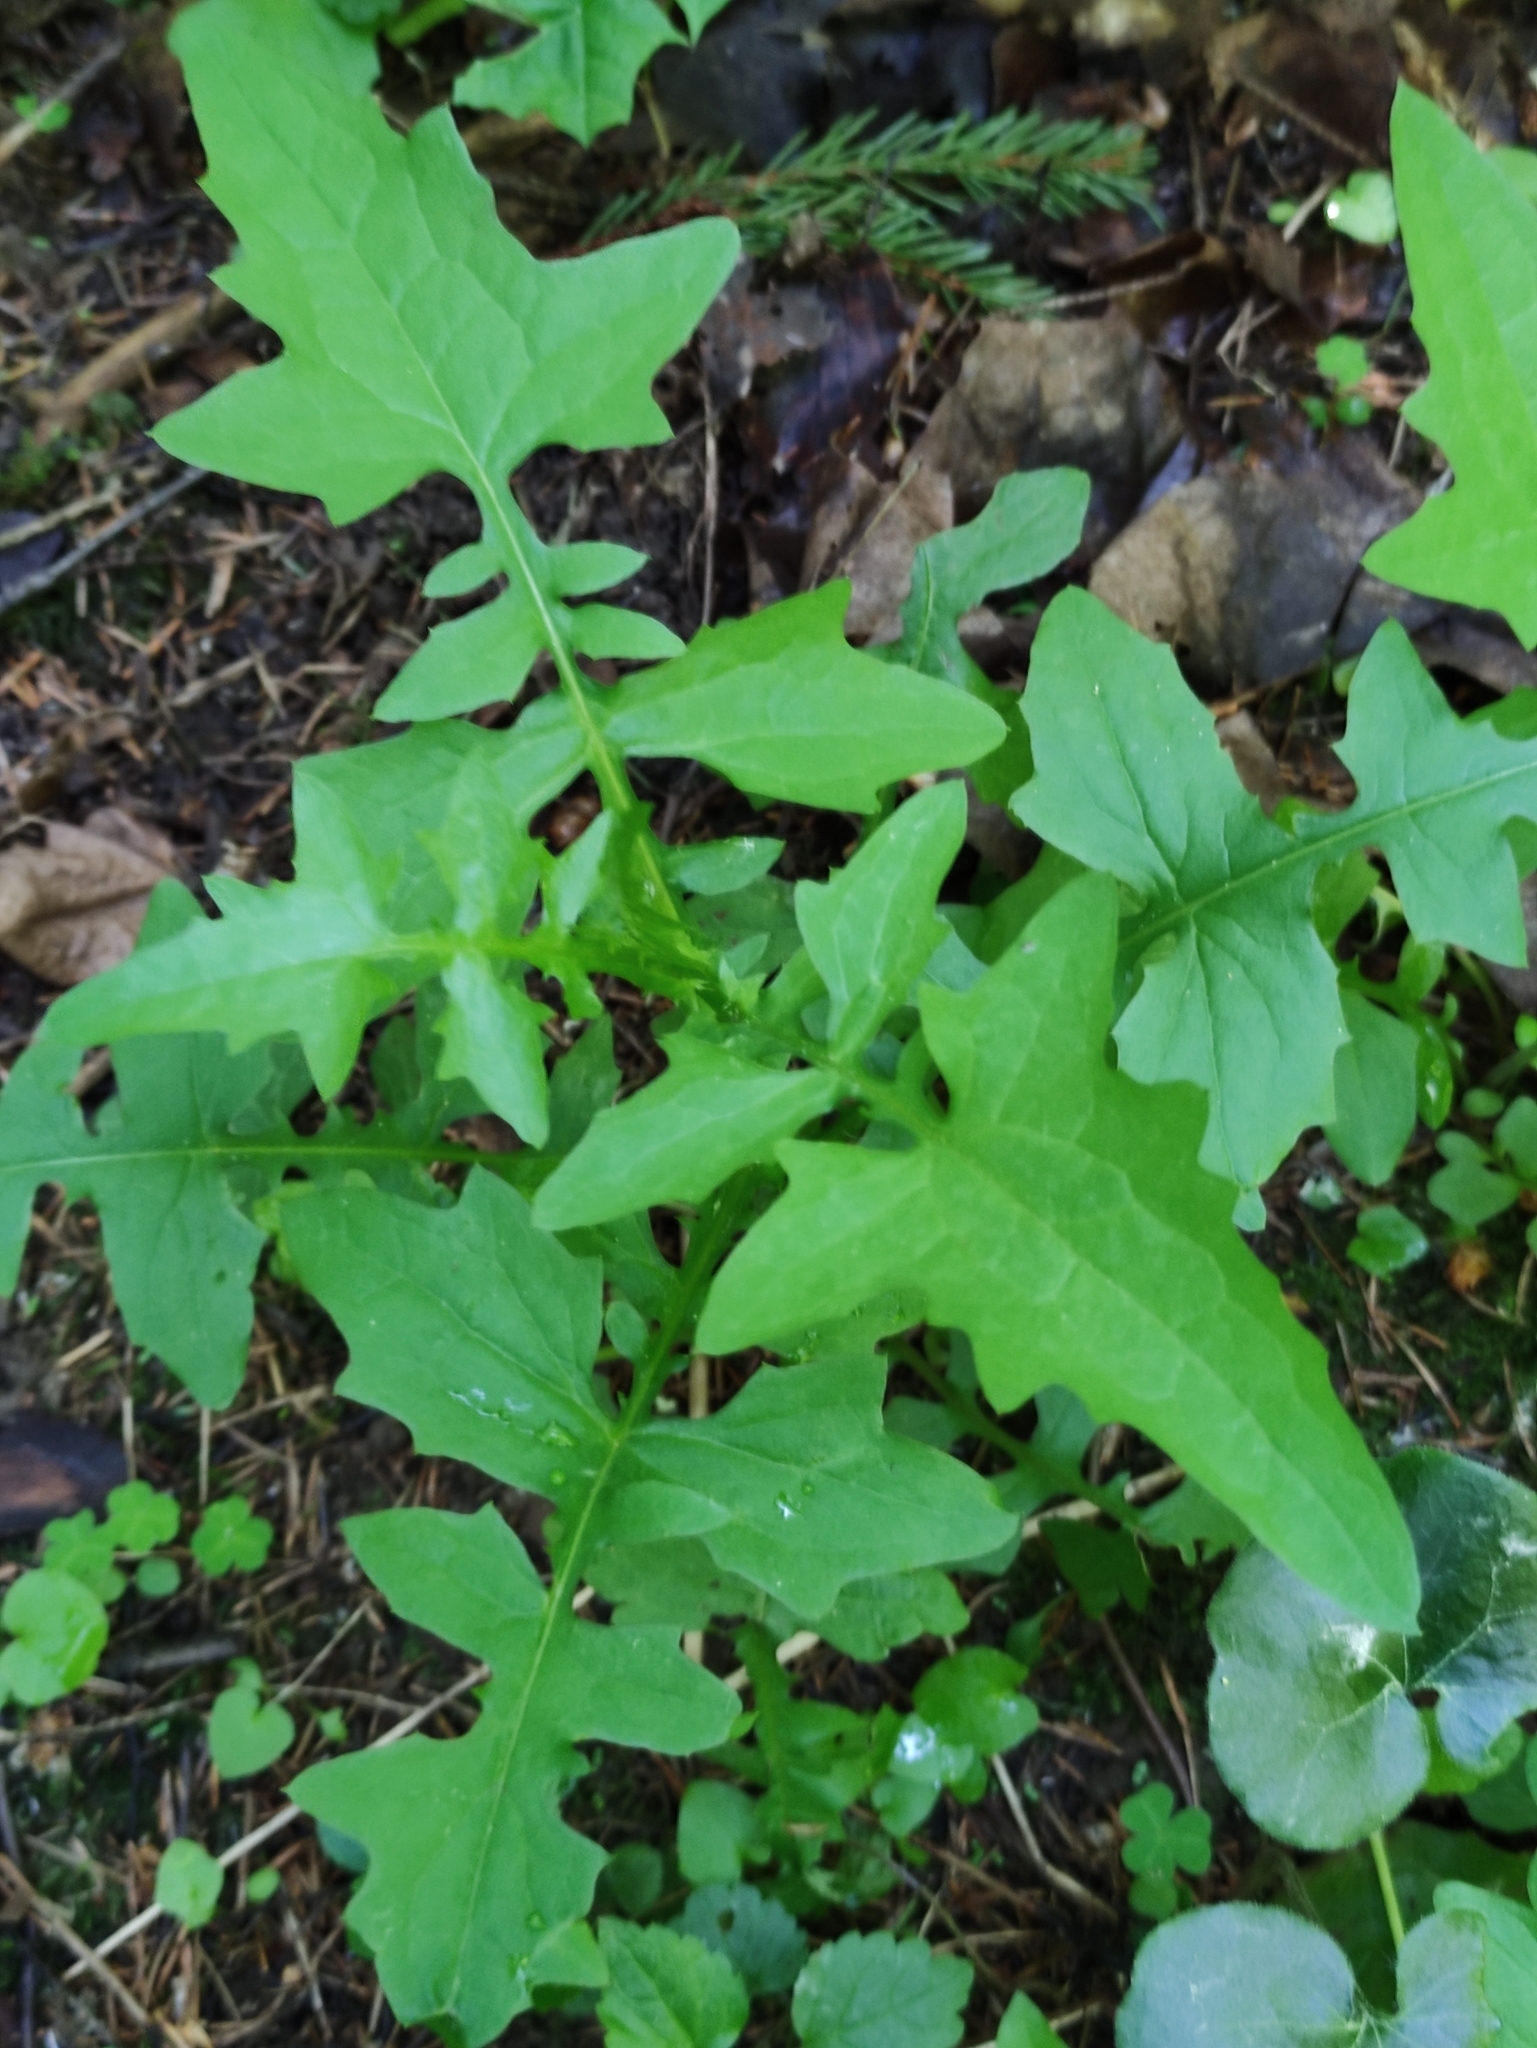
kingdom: Plantae
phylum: Tracheophyta
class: Magnoliopsida
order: Asterales
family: Asteraceae
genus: Mycelis
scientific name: Mycelis muralis
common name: Wall lettuce
